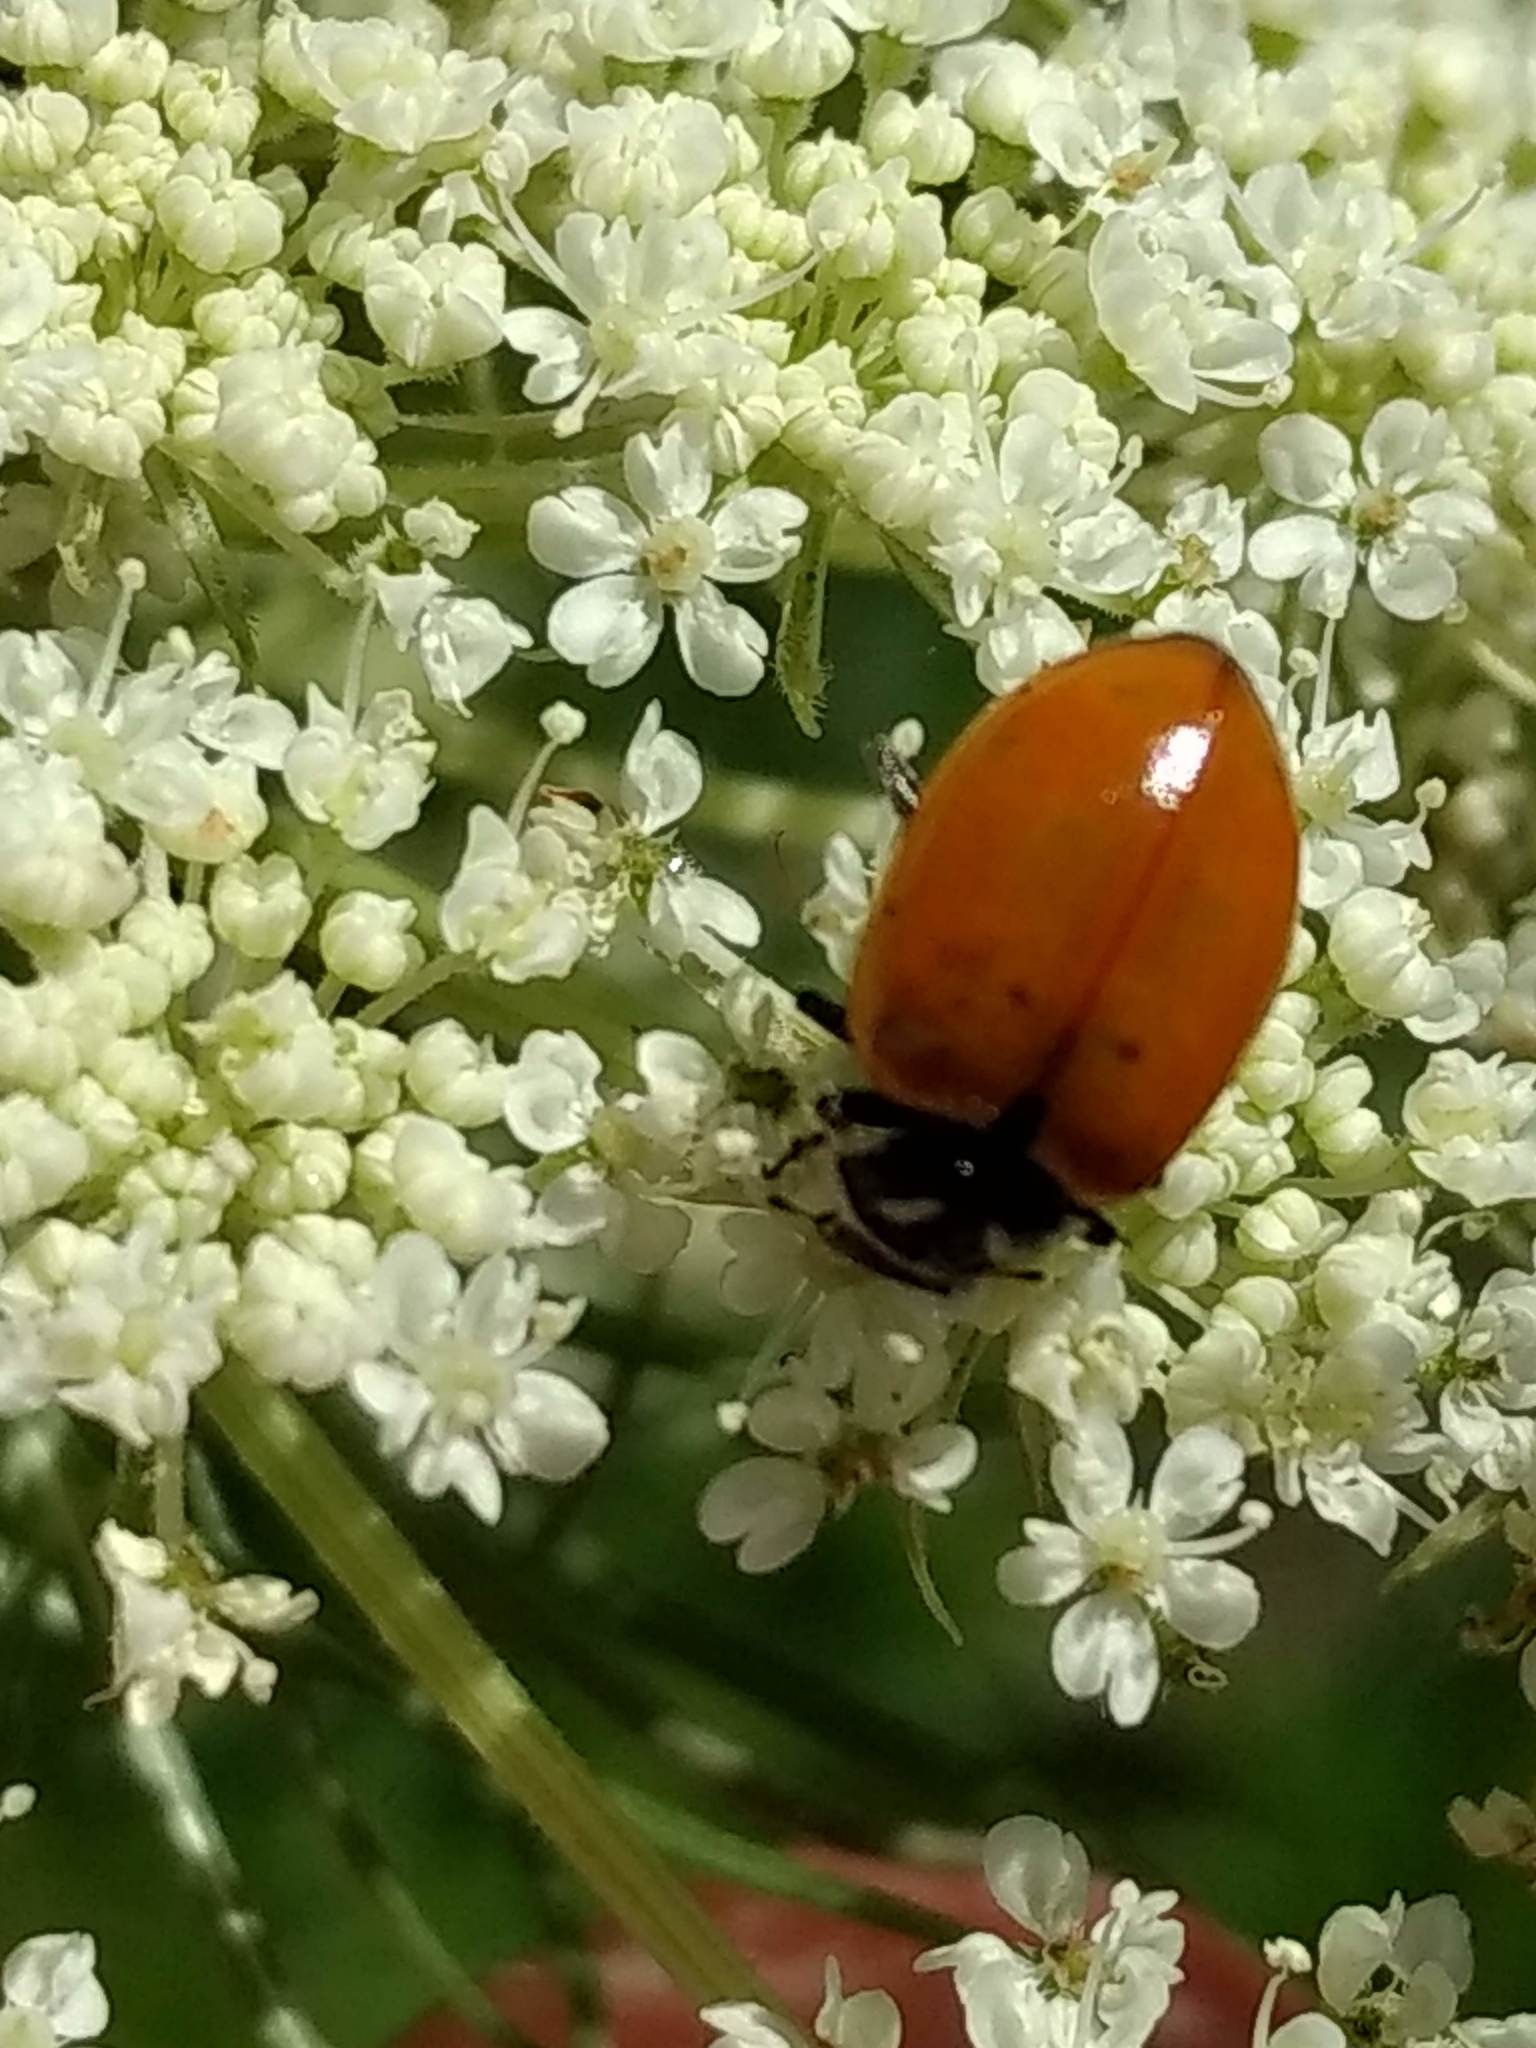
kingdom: Animalia
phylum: Arthropoda
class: Insecta
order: Coleoptera
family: Coccinellidae
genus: Hippodamia
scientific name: Hippodamia convergens
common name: Convergent lady beetle
